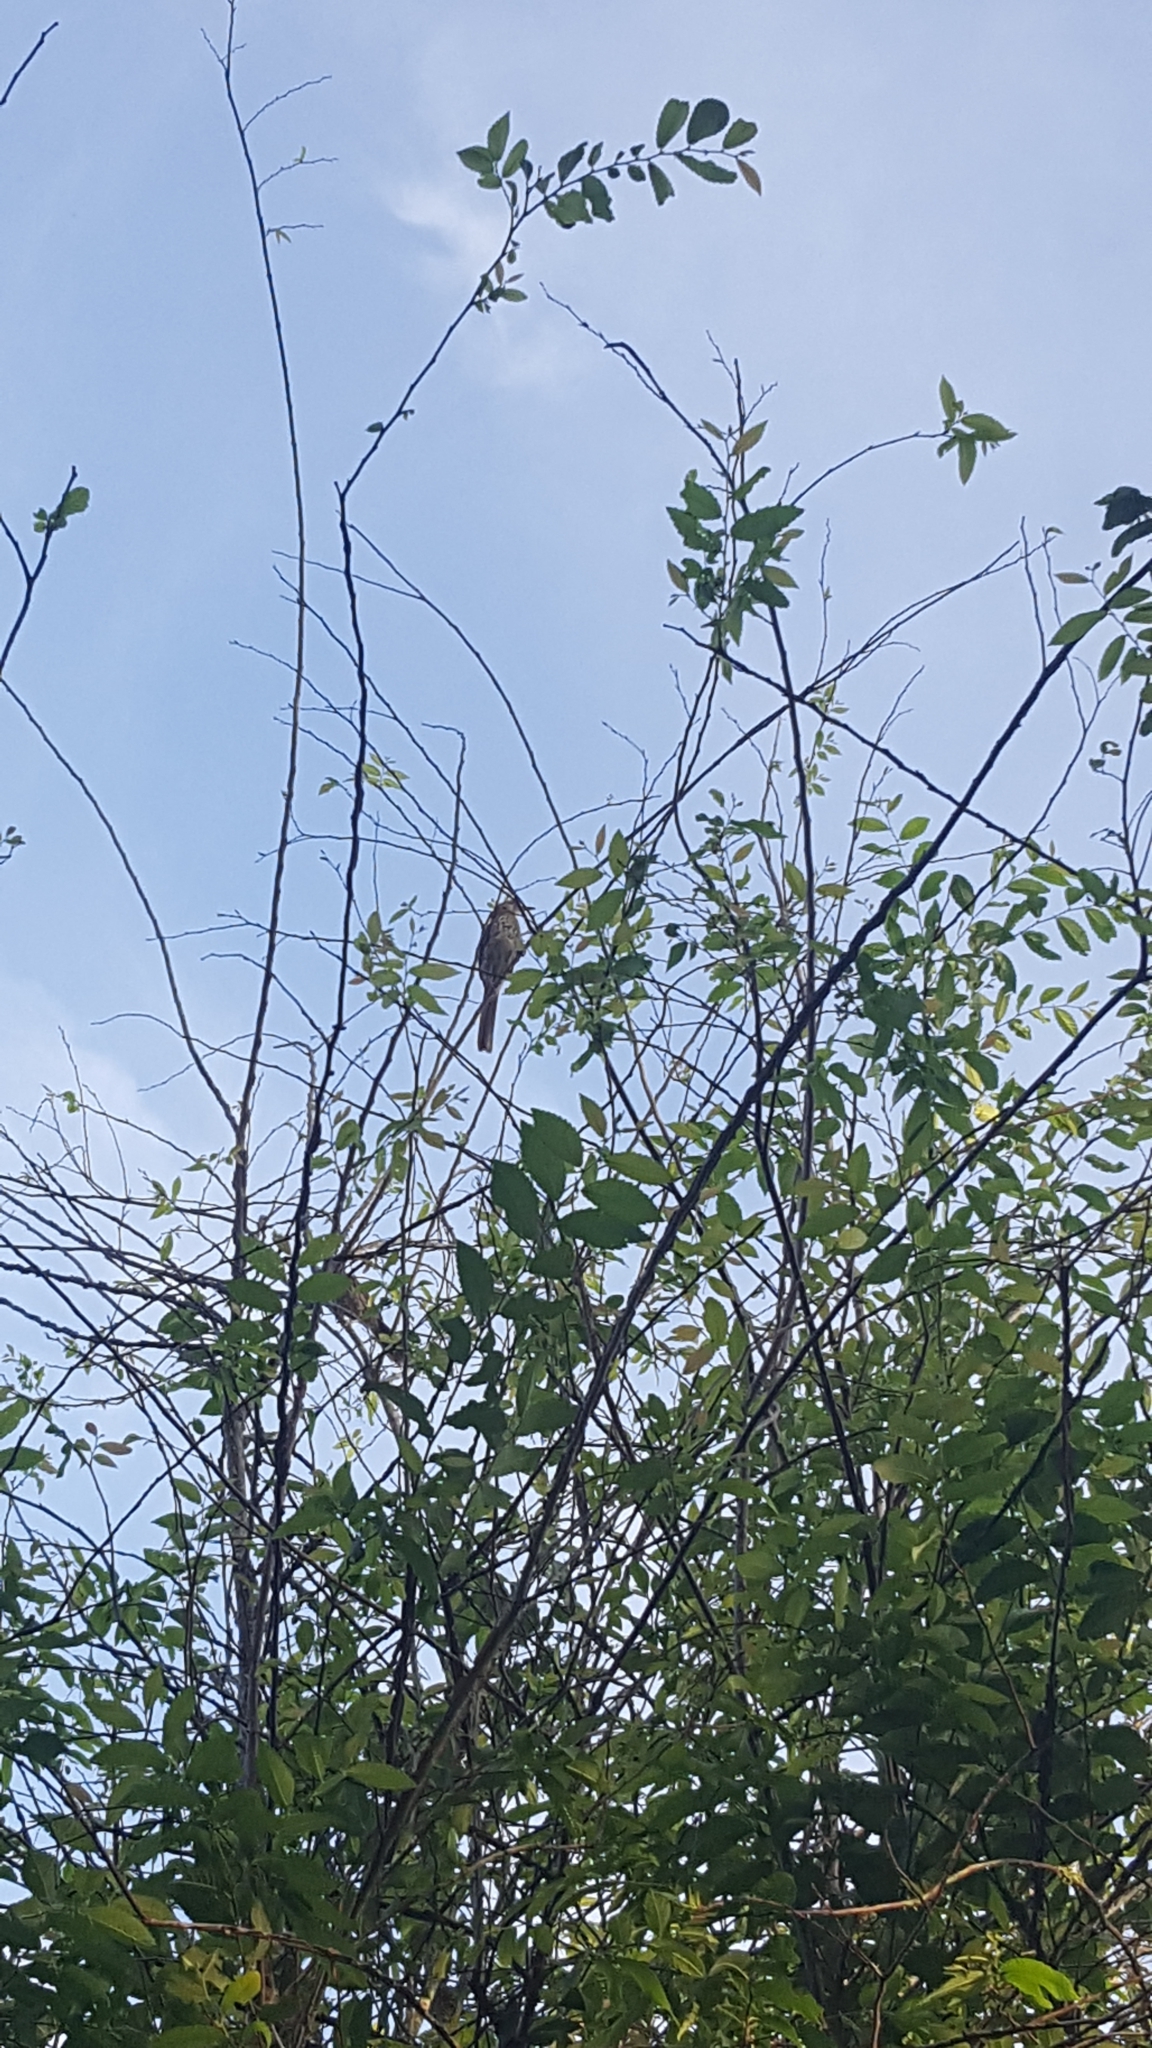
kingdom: Animalia
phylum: Chordata
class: Aves
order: Passeriformes
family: Mimidae
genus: Toxostoma
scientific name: Toxostoma rufum
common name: Brown thrasher
